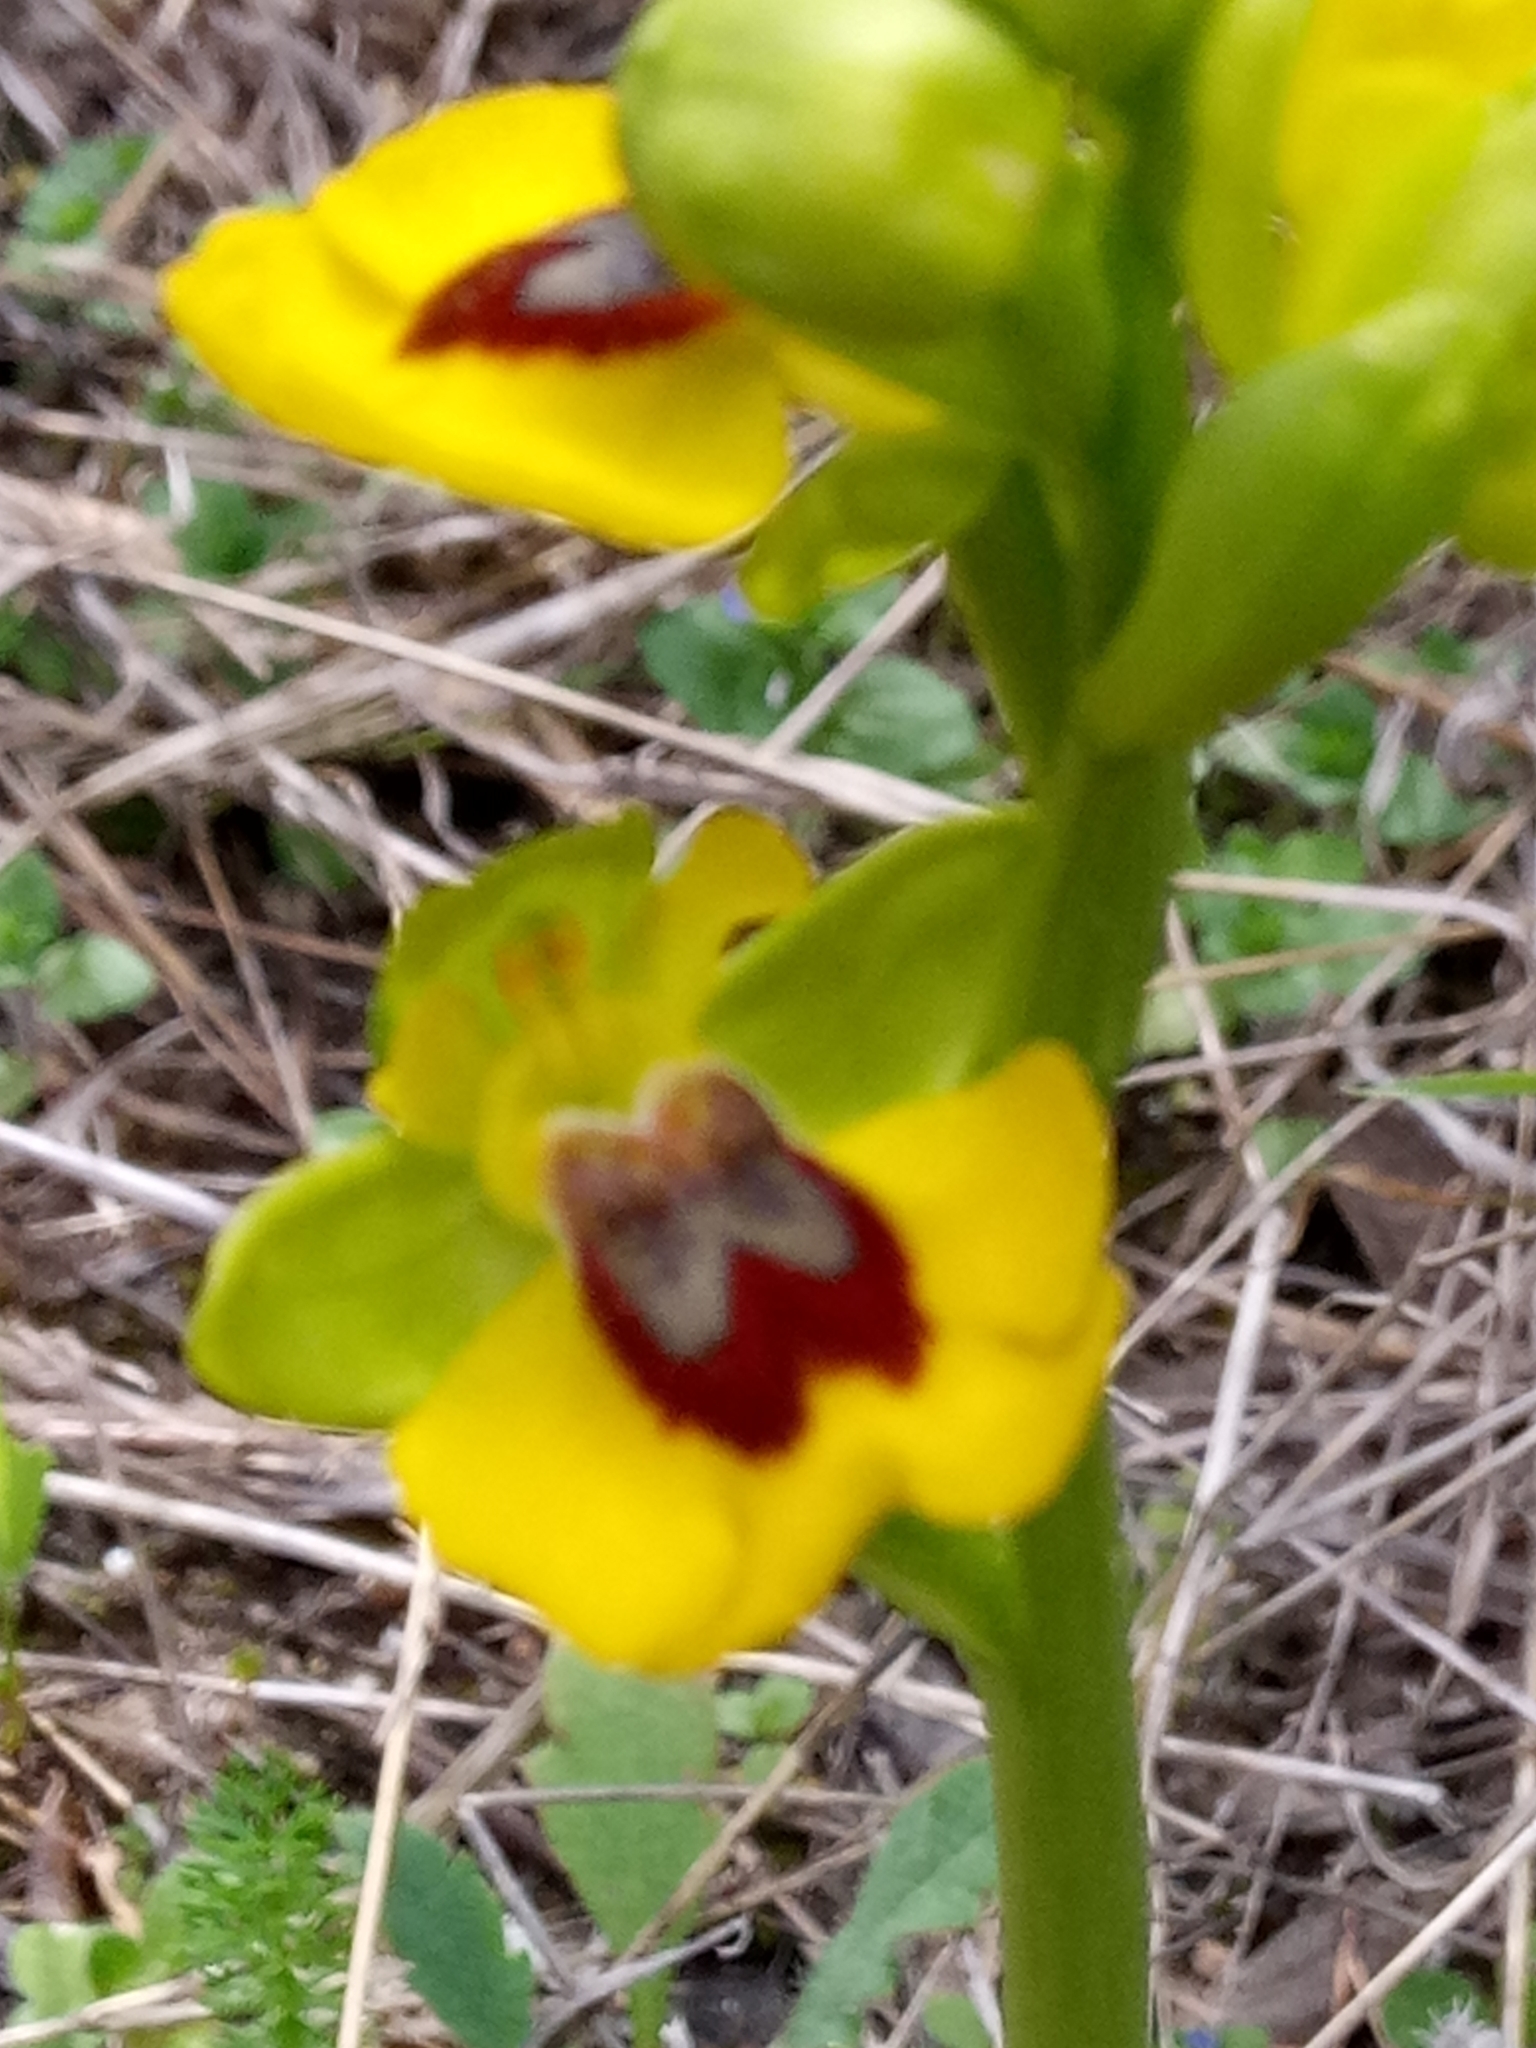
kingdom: Plantae
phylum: Tracheophyta
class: Liliopsida
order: Asparagales
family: Orchidaceae
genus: Ophrys
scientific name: Ophrys lutea
